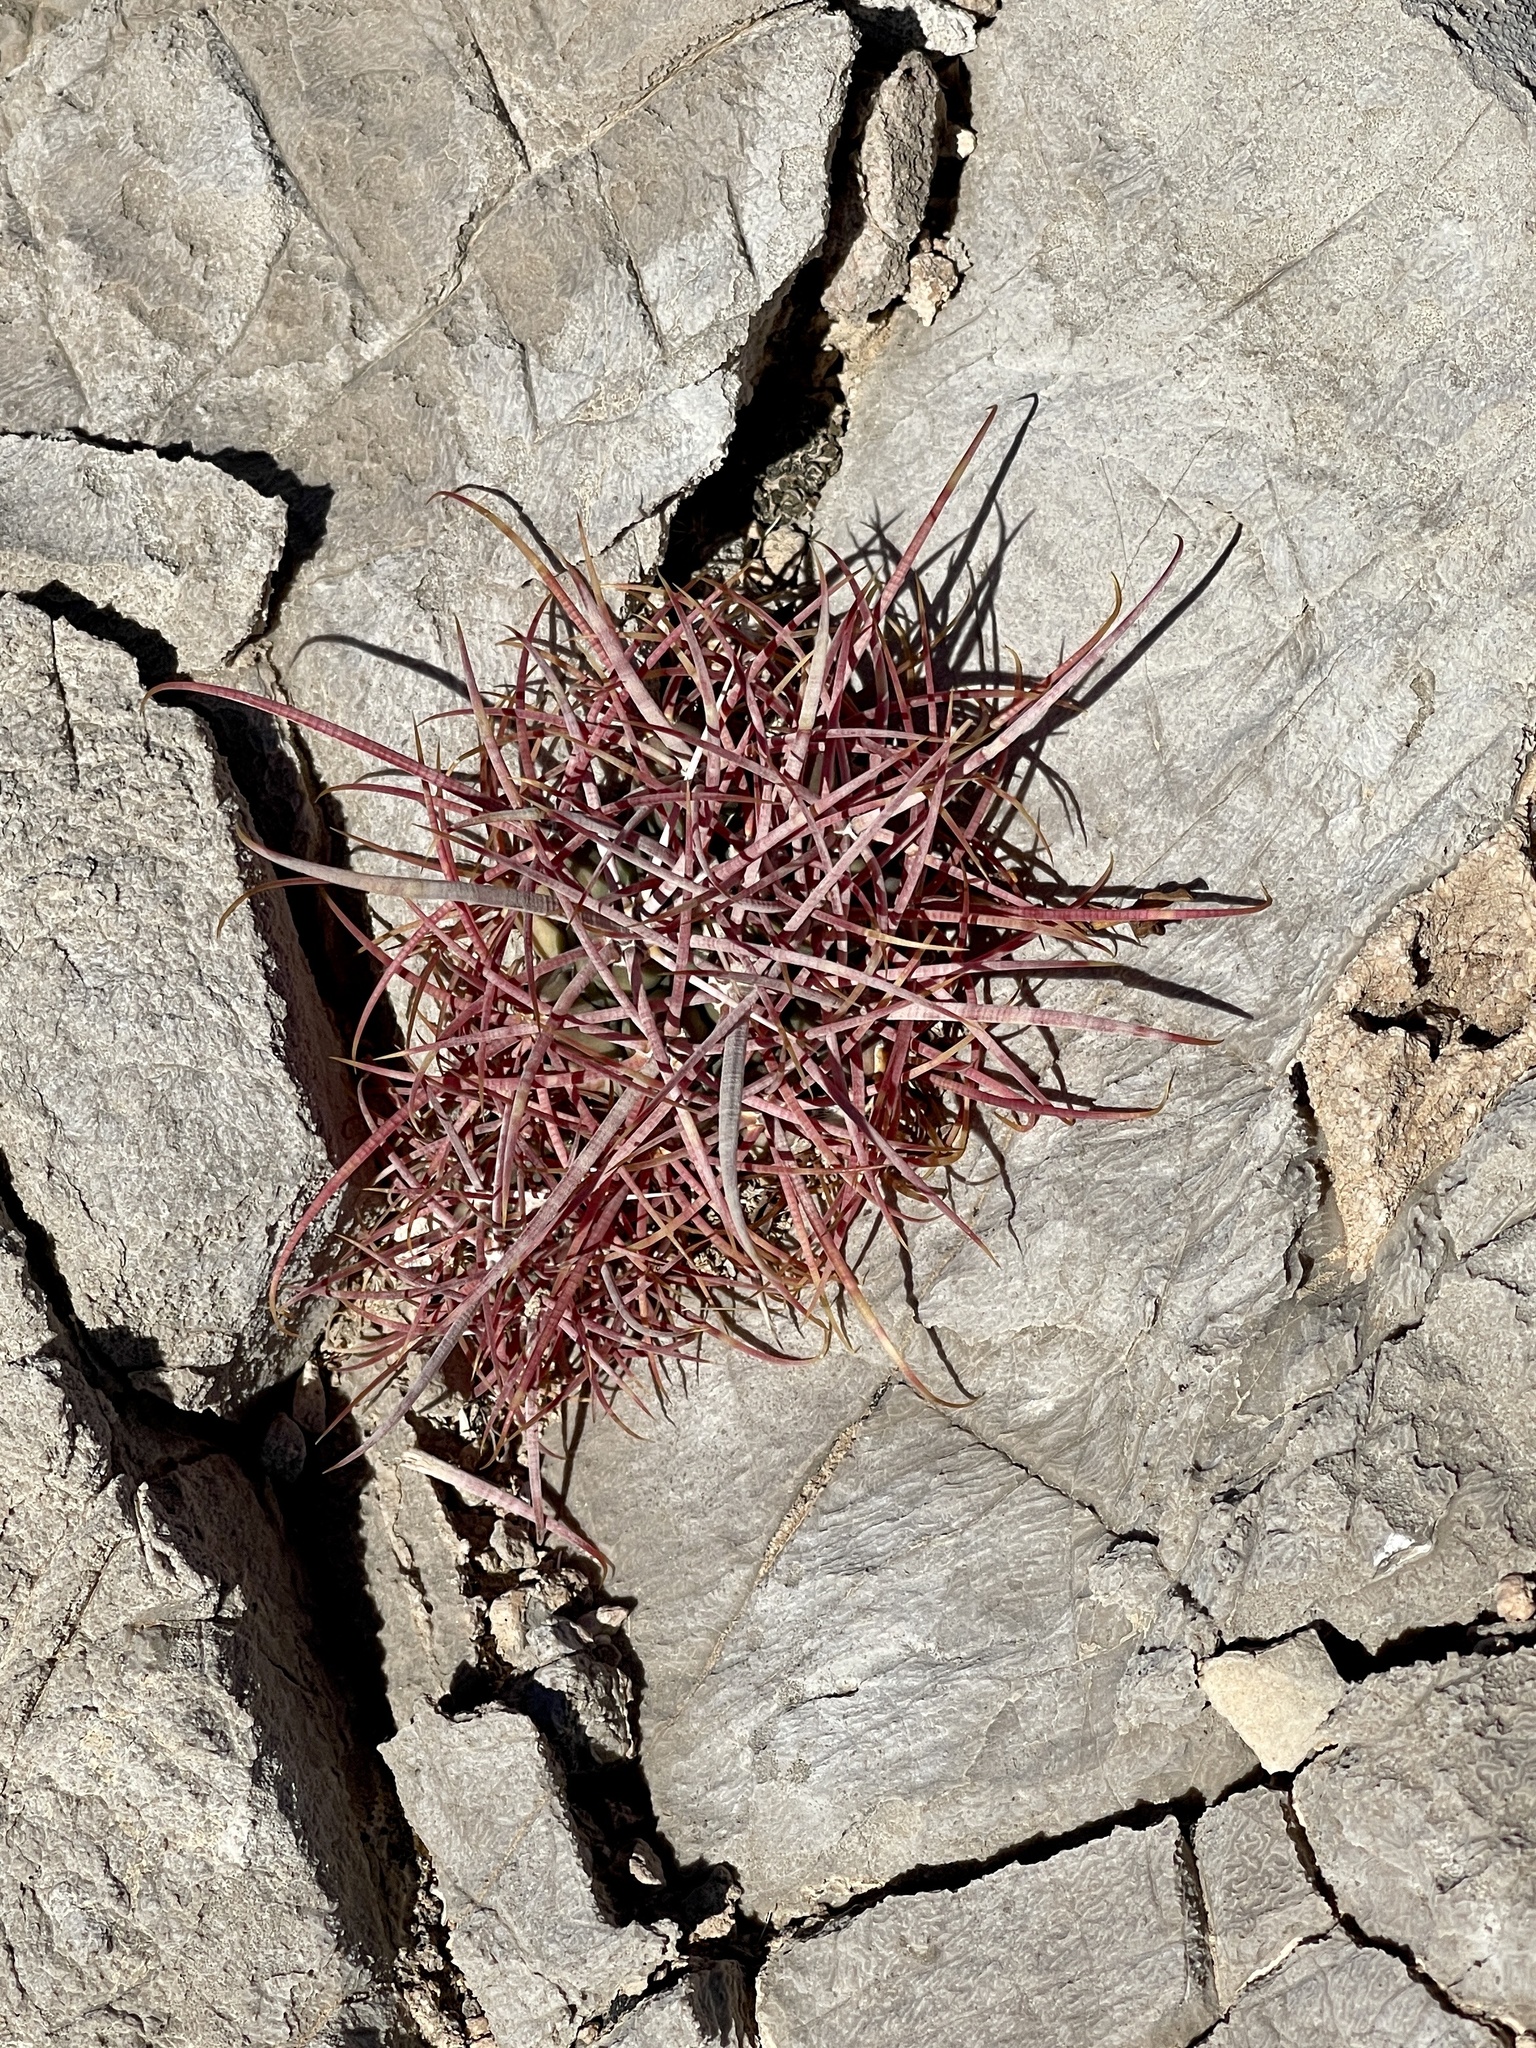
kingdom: Plantae
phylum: Tracheophyta
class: Magnoliopsida
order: Caryophyllales
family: Cactaceae
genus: Ferocactus
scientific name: Ferocactus cylindraceus
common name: California barrel cactus
